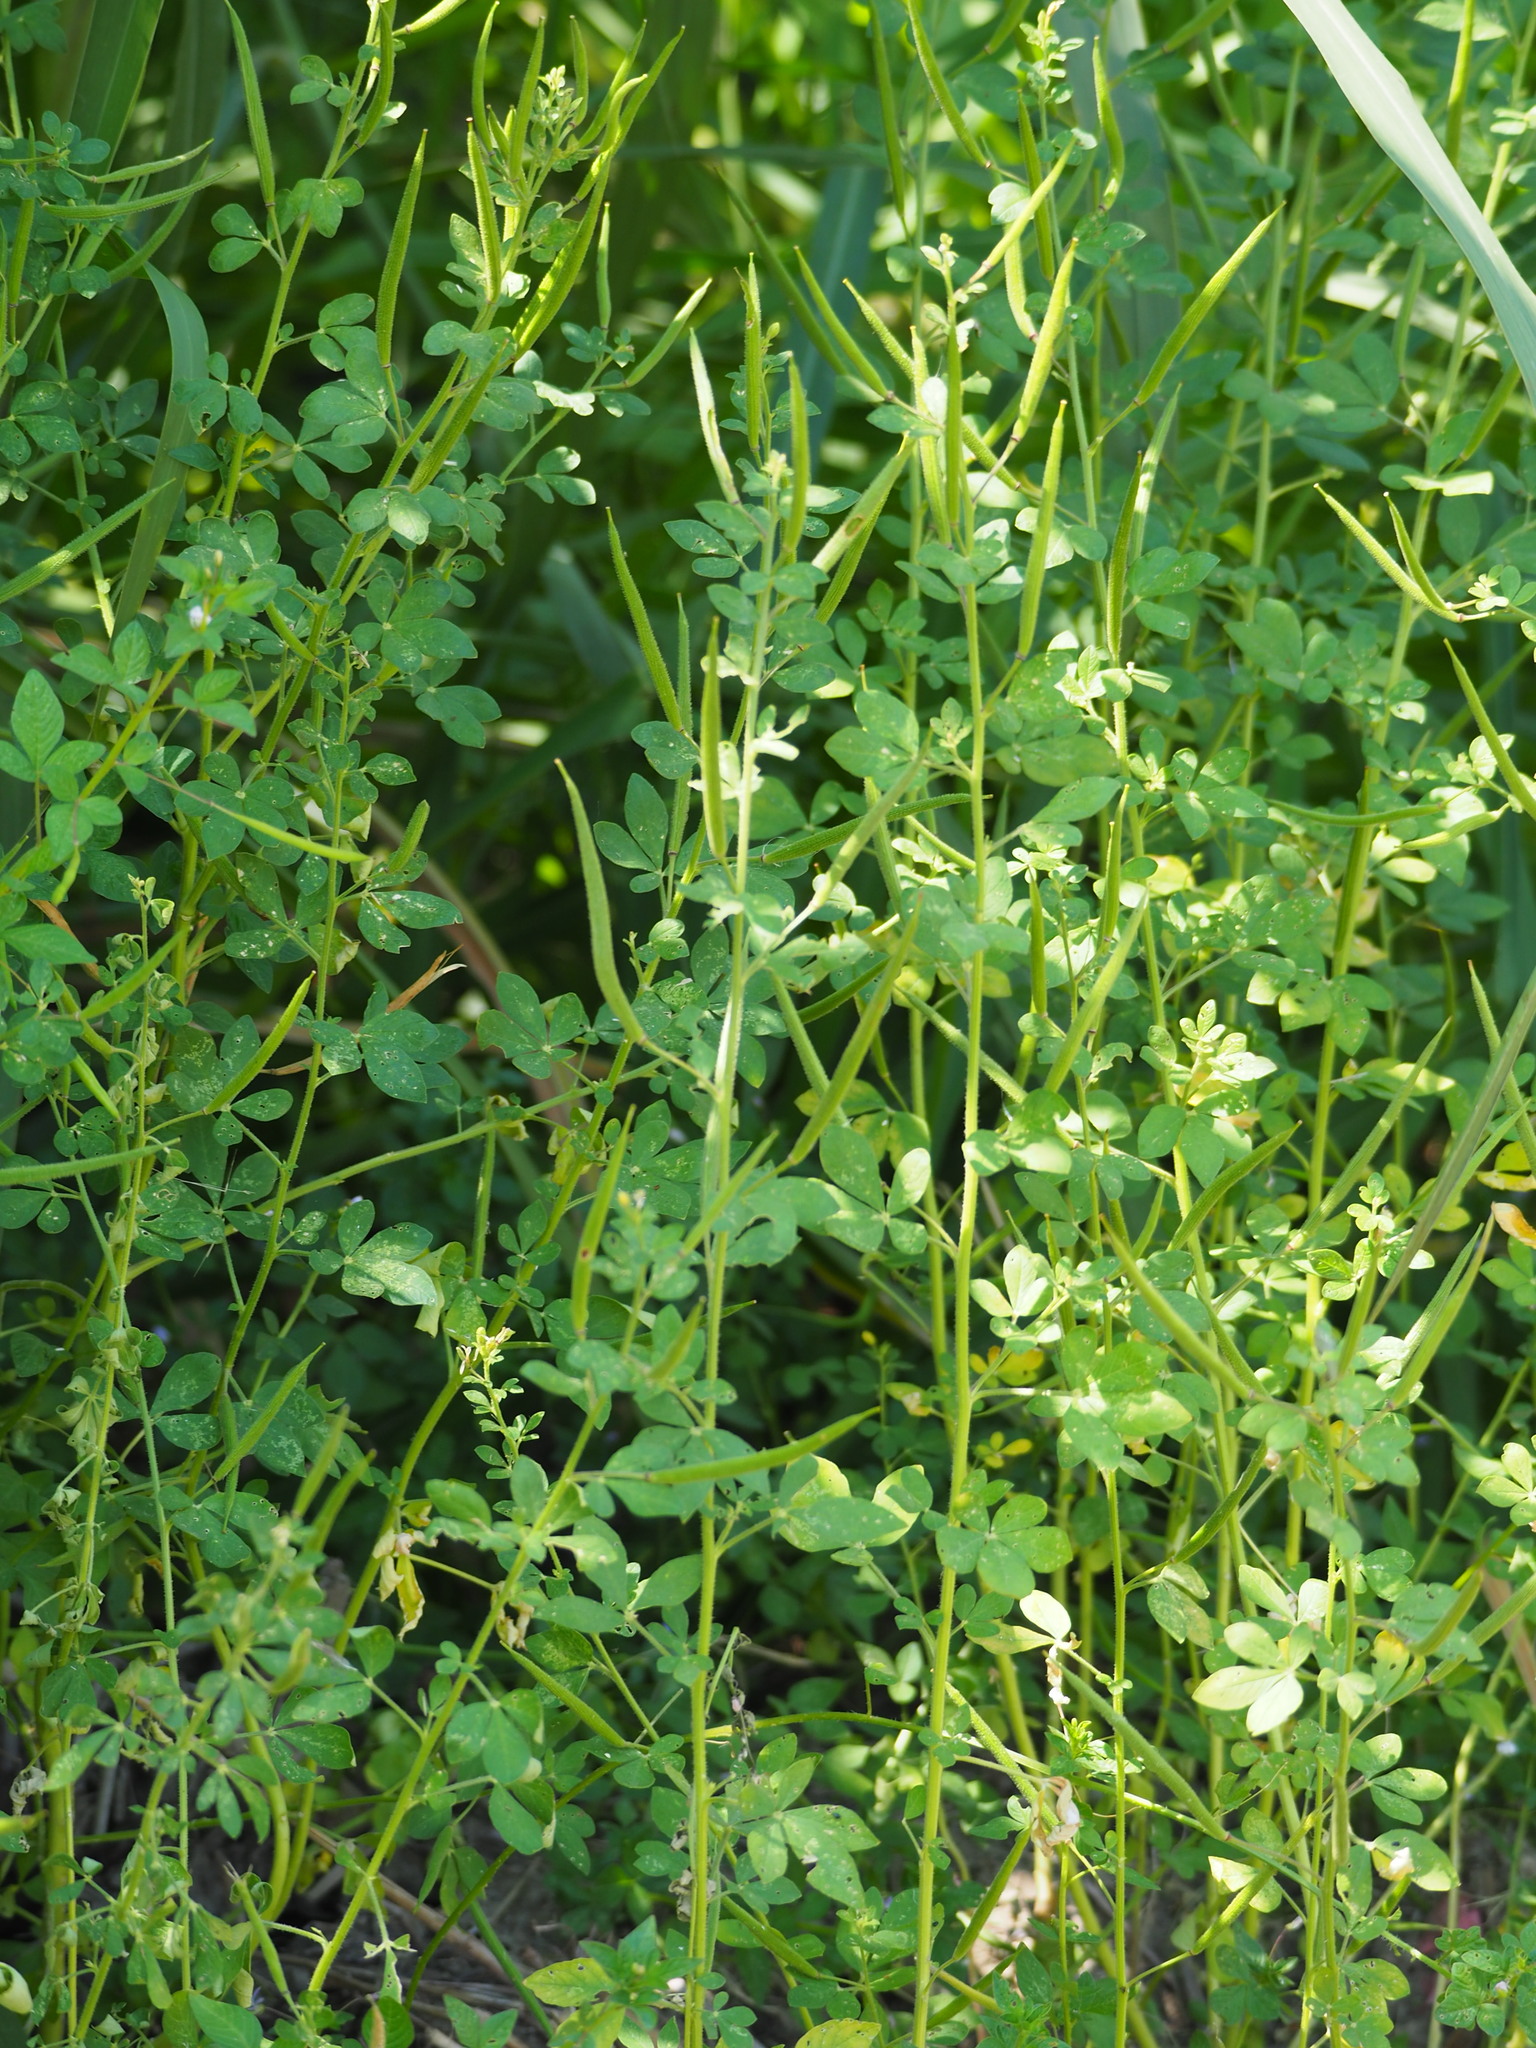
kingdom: Plantae
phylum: Tracheophyta
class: Magnoliopsida
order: Brassicales
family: Cleomaceae
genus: Arivela
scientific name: Arivela viscosa
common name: Asian spiderflower
